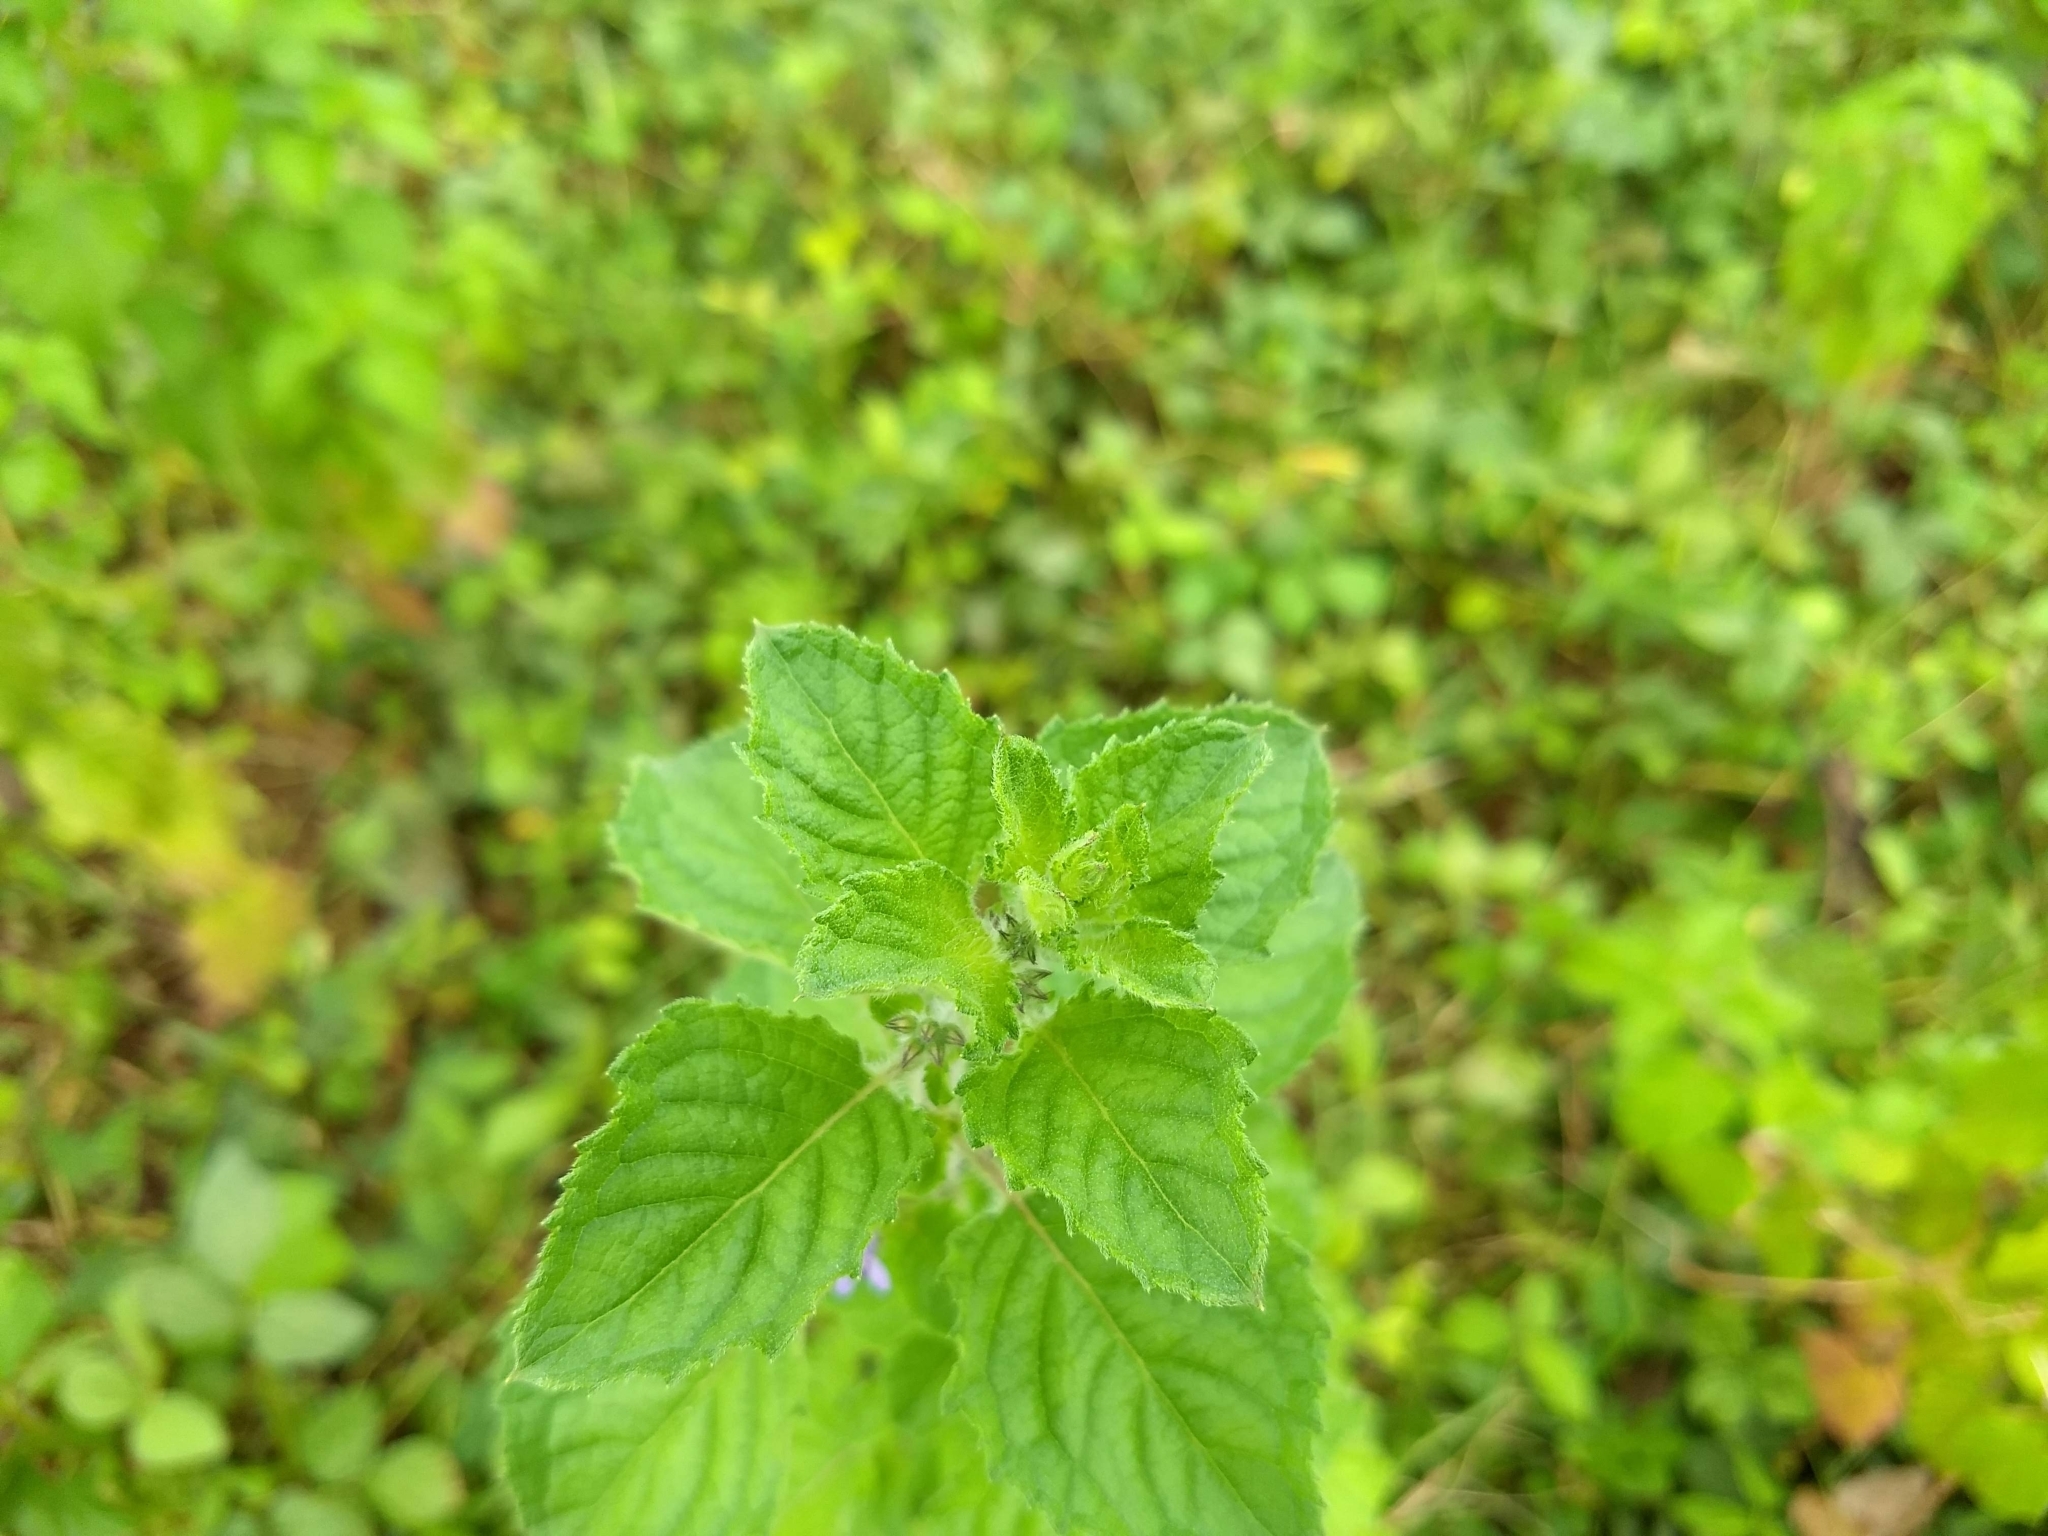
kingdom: Plantae
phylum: Tracheophyta
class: Magnoliopsida
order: Lamiales
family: Lamiaceae
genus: Mesosphaerum
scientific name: Mesosphaerum suaveolens
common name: Pignut
